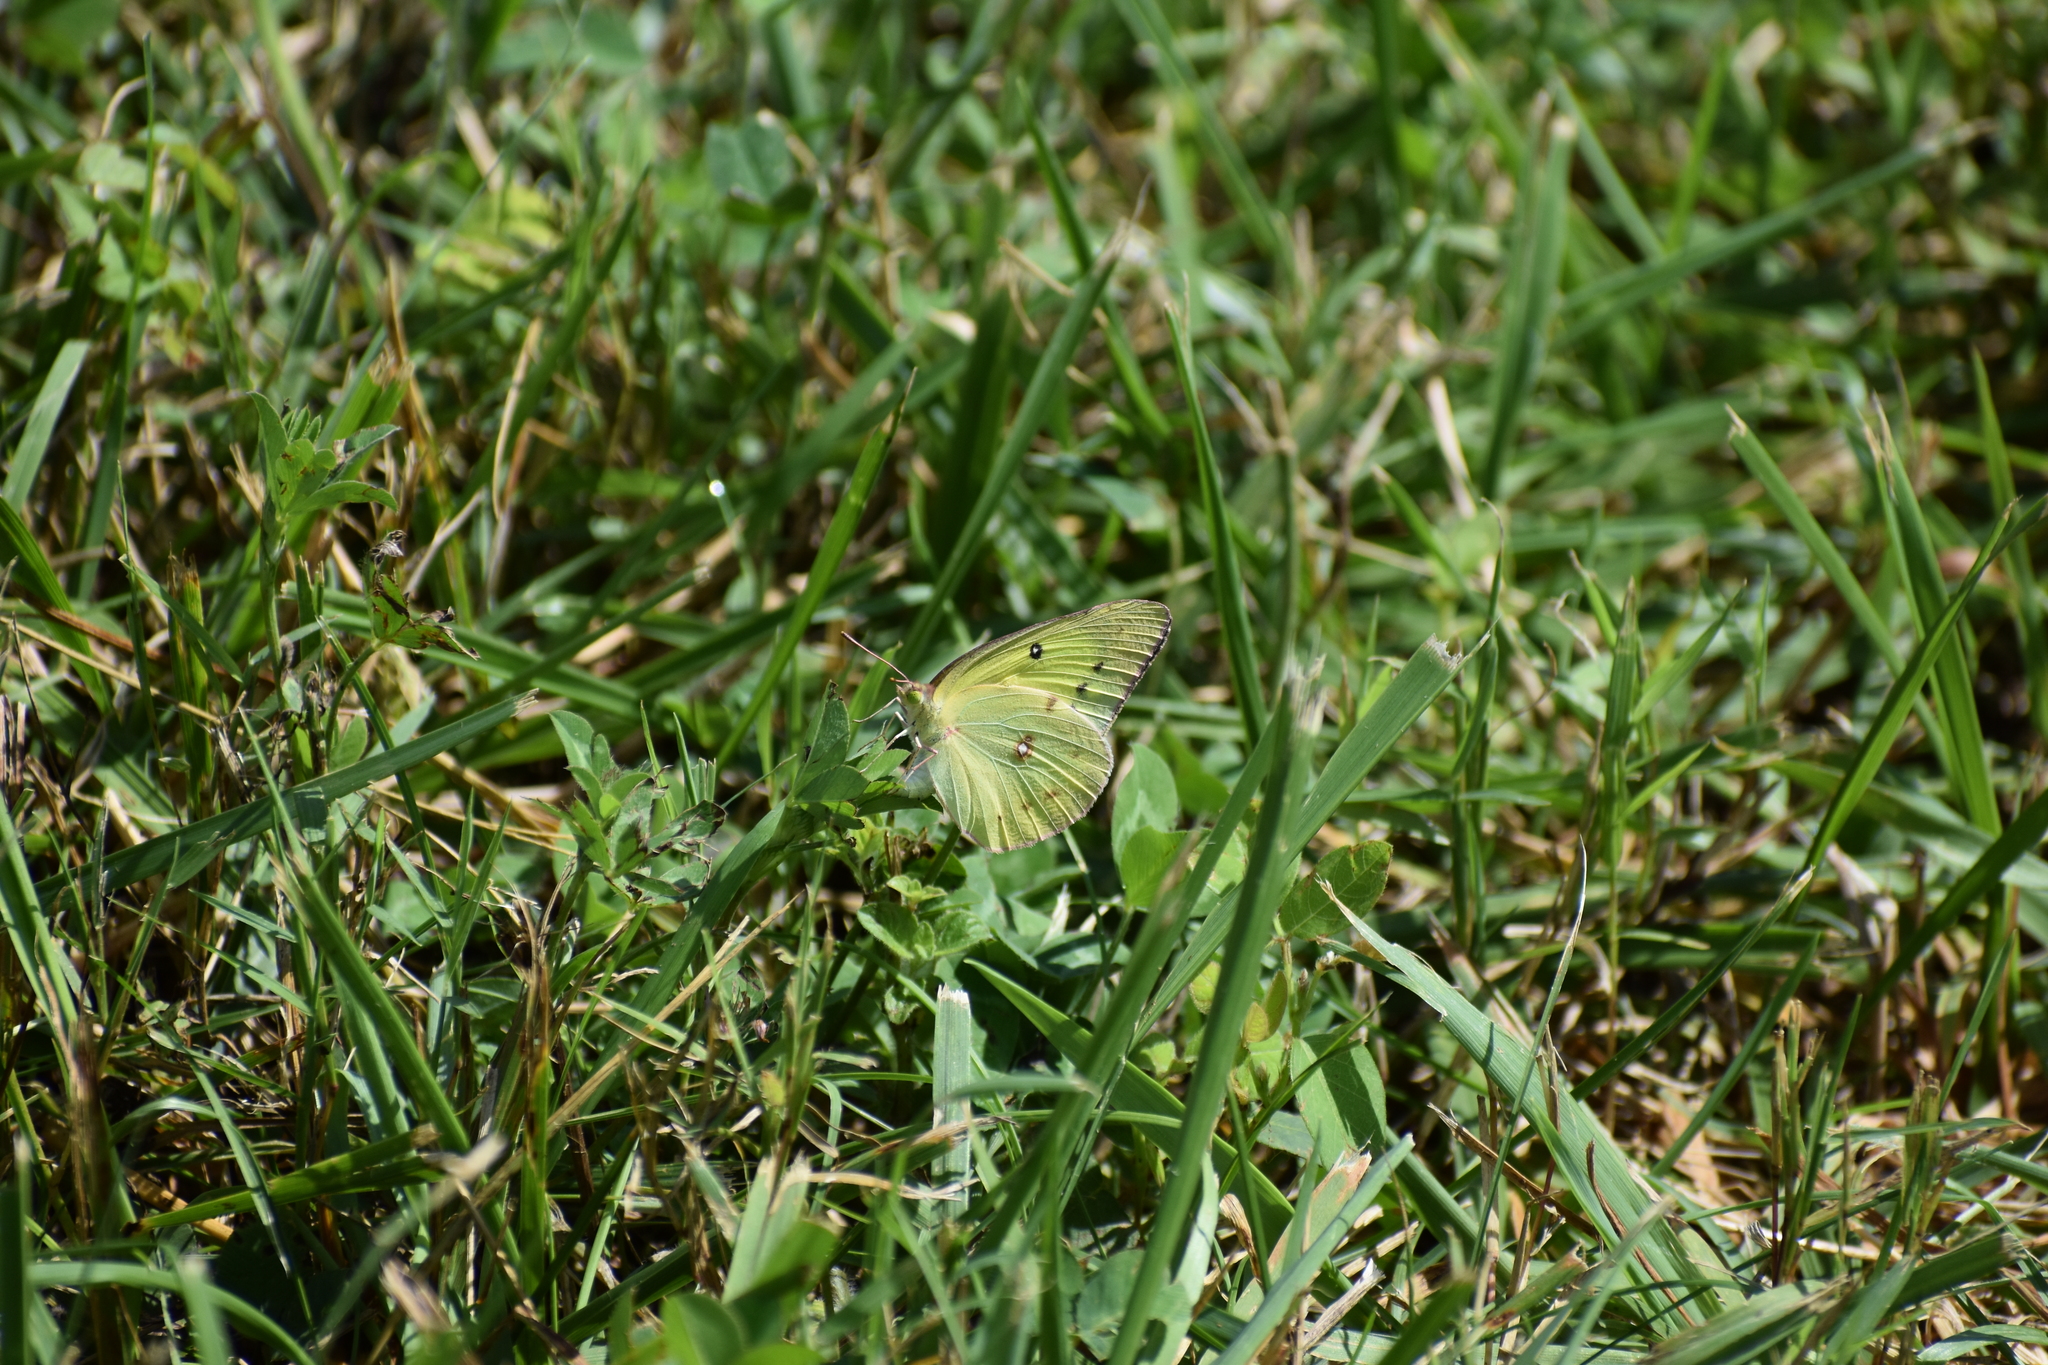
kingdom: Animalia
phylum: Arthropoda
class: Insecta
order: Lepidoptera
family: Pieridae
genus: Colias
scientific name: Colias philodice
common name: Clouded sulphur
